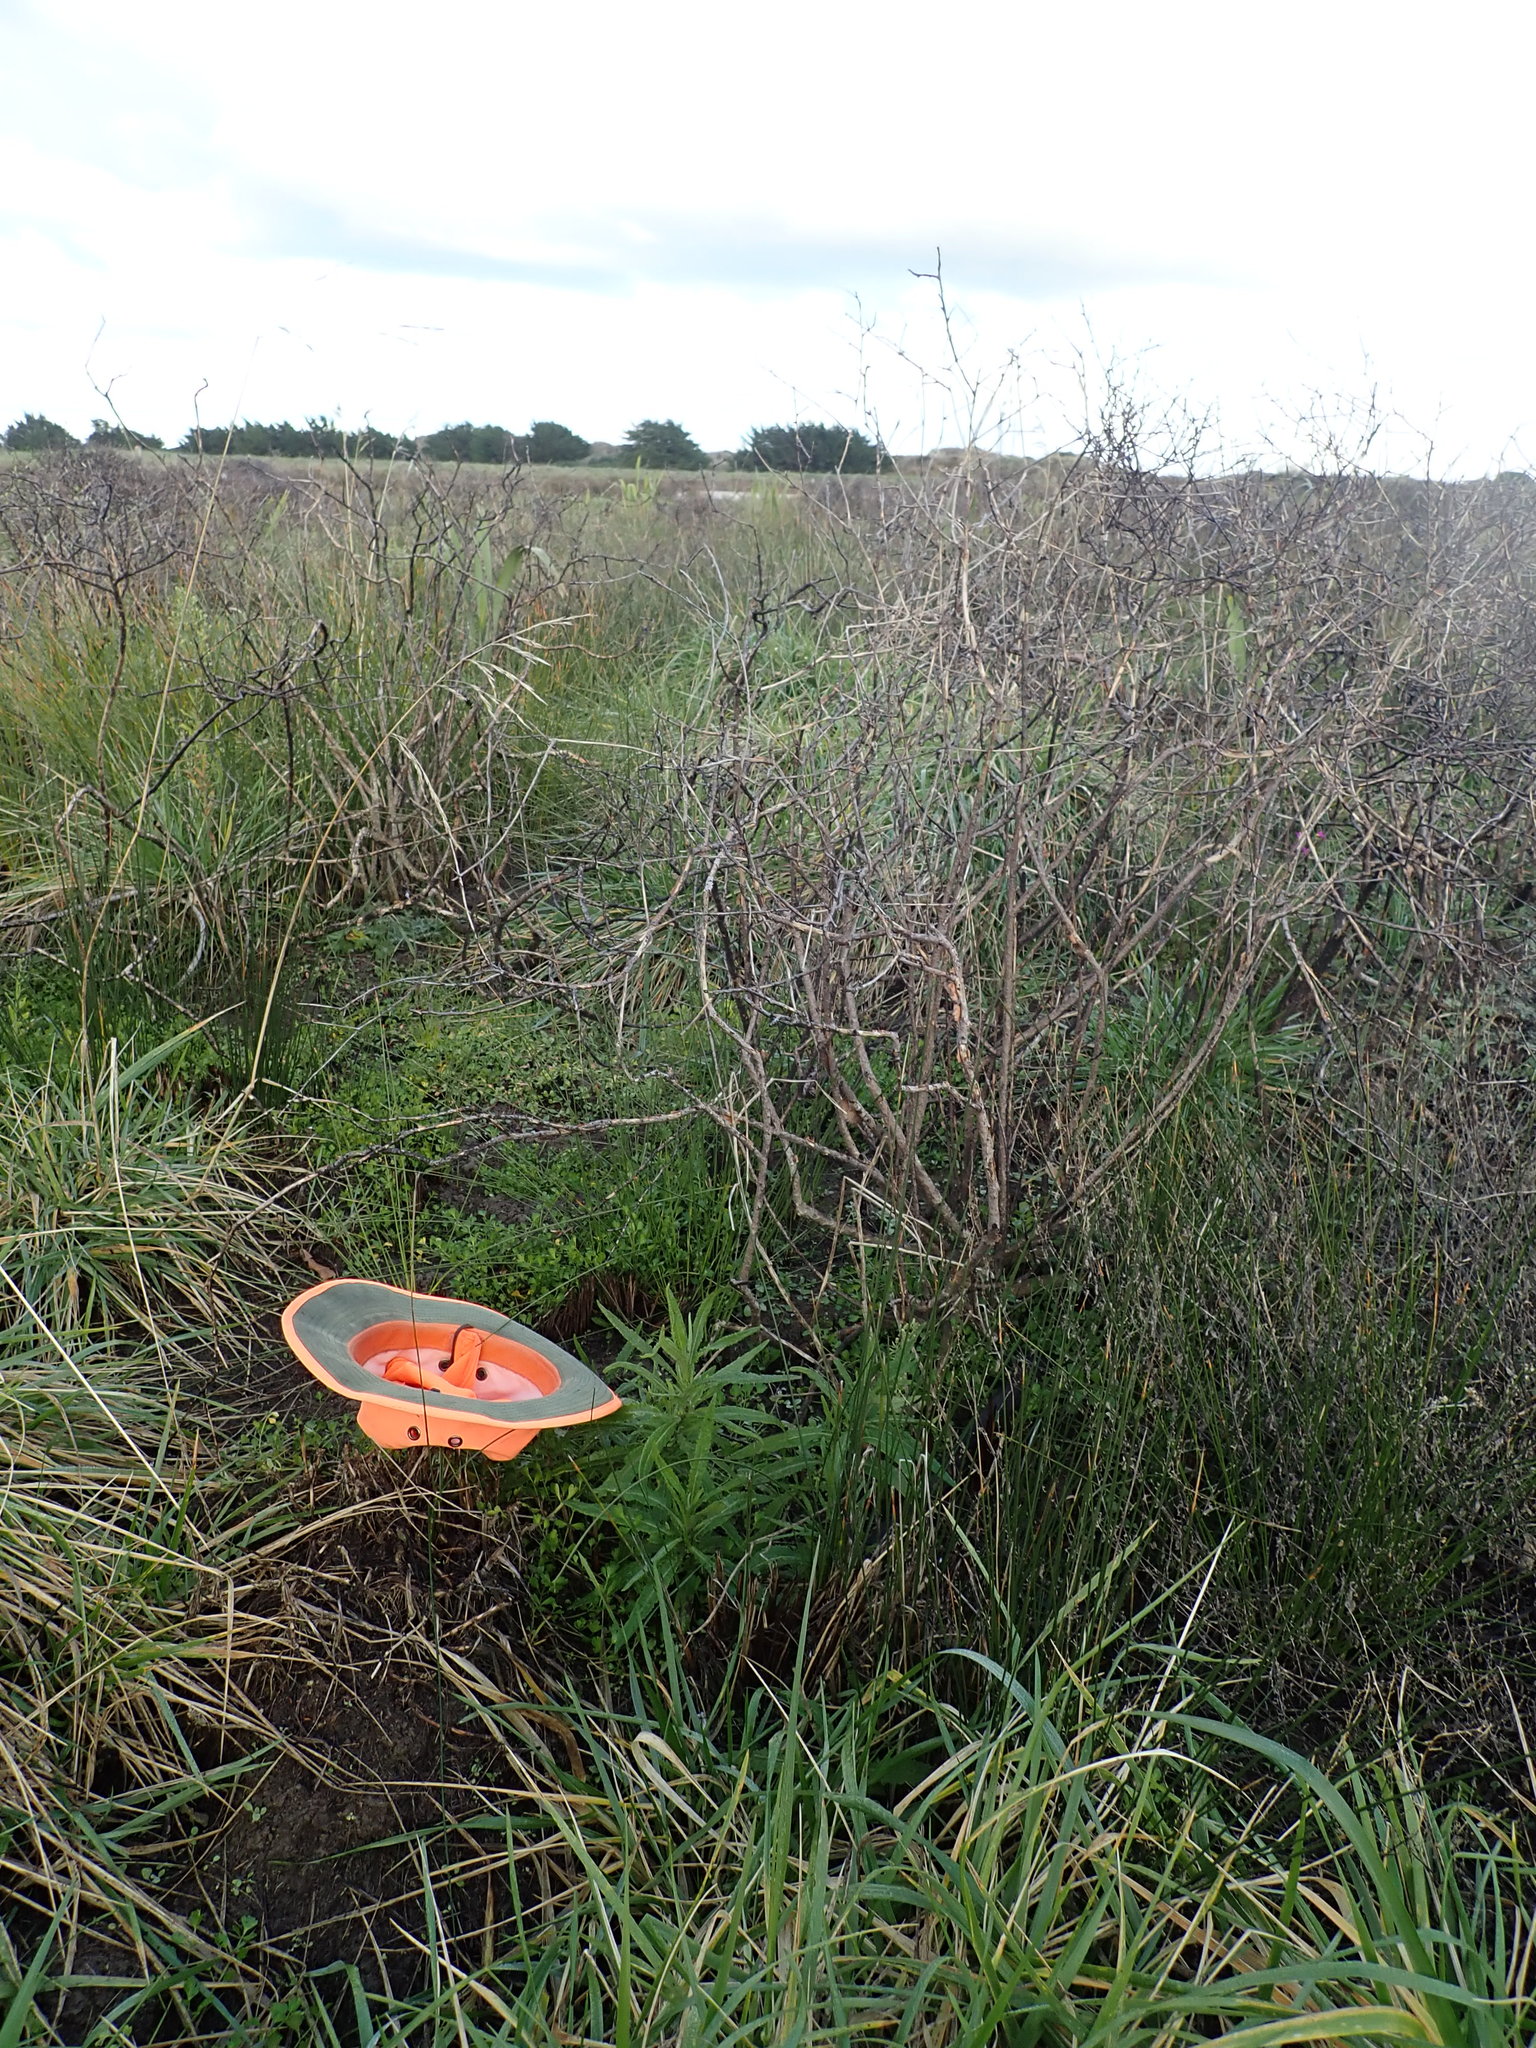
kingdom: Plantae
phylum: Tracheophyta
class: Magnoliopsida
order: Asterales
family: Asteraceae
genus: Senecio
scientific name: Senecio minimus
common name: Toothed fireweed
